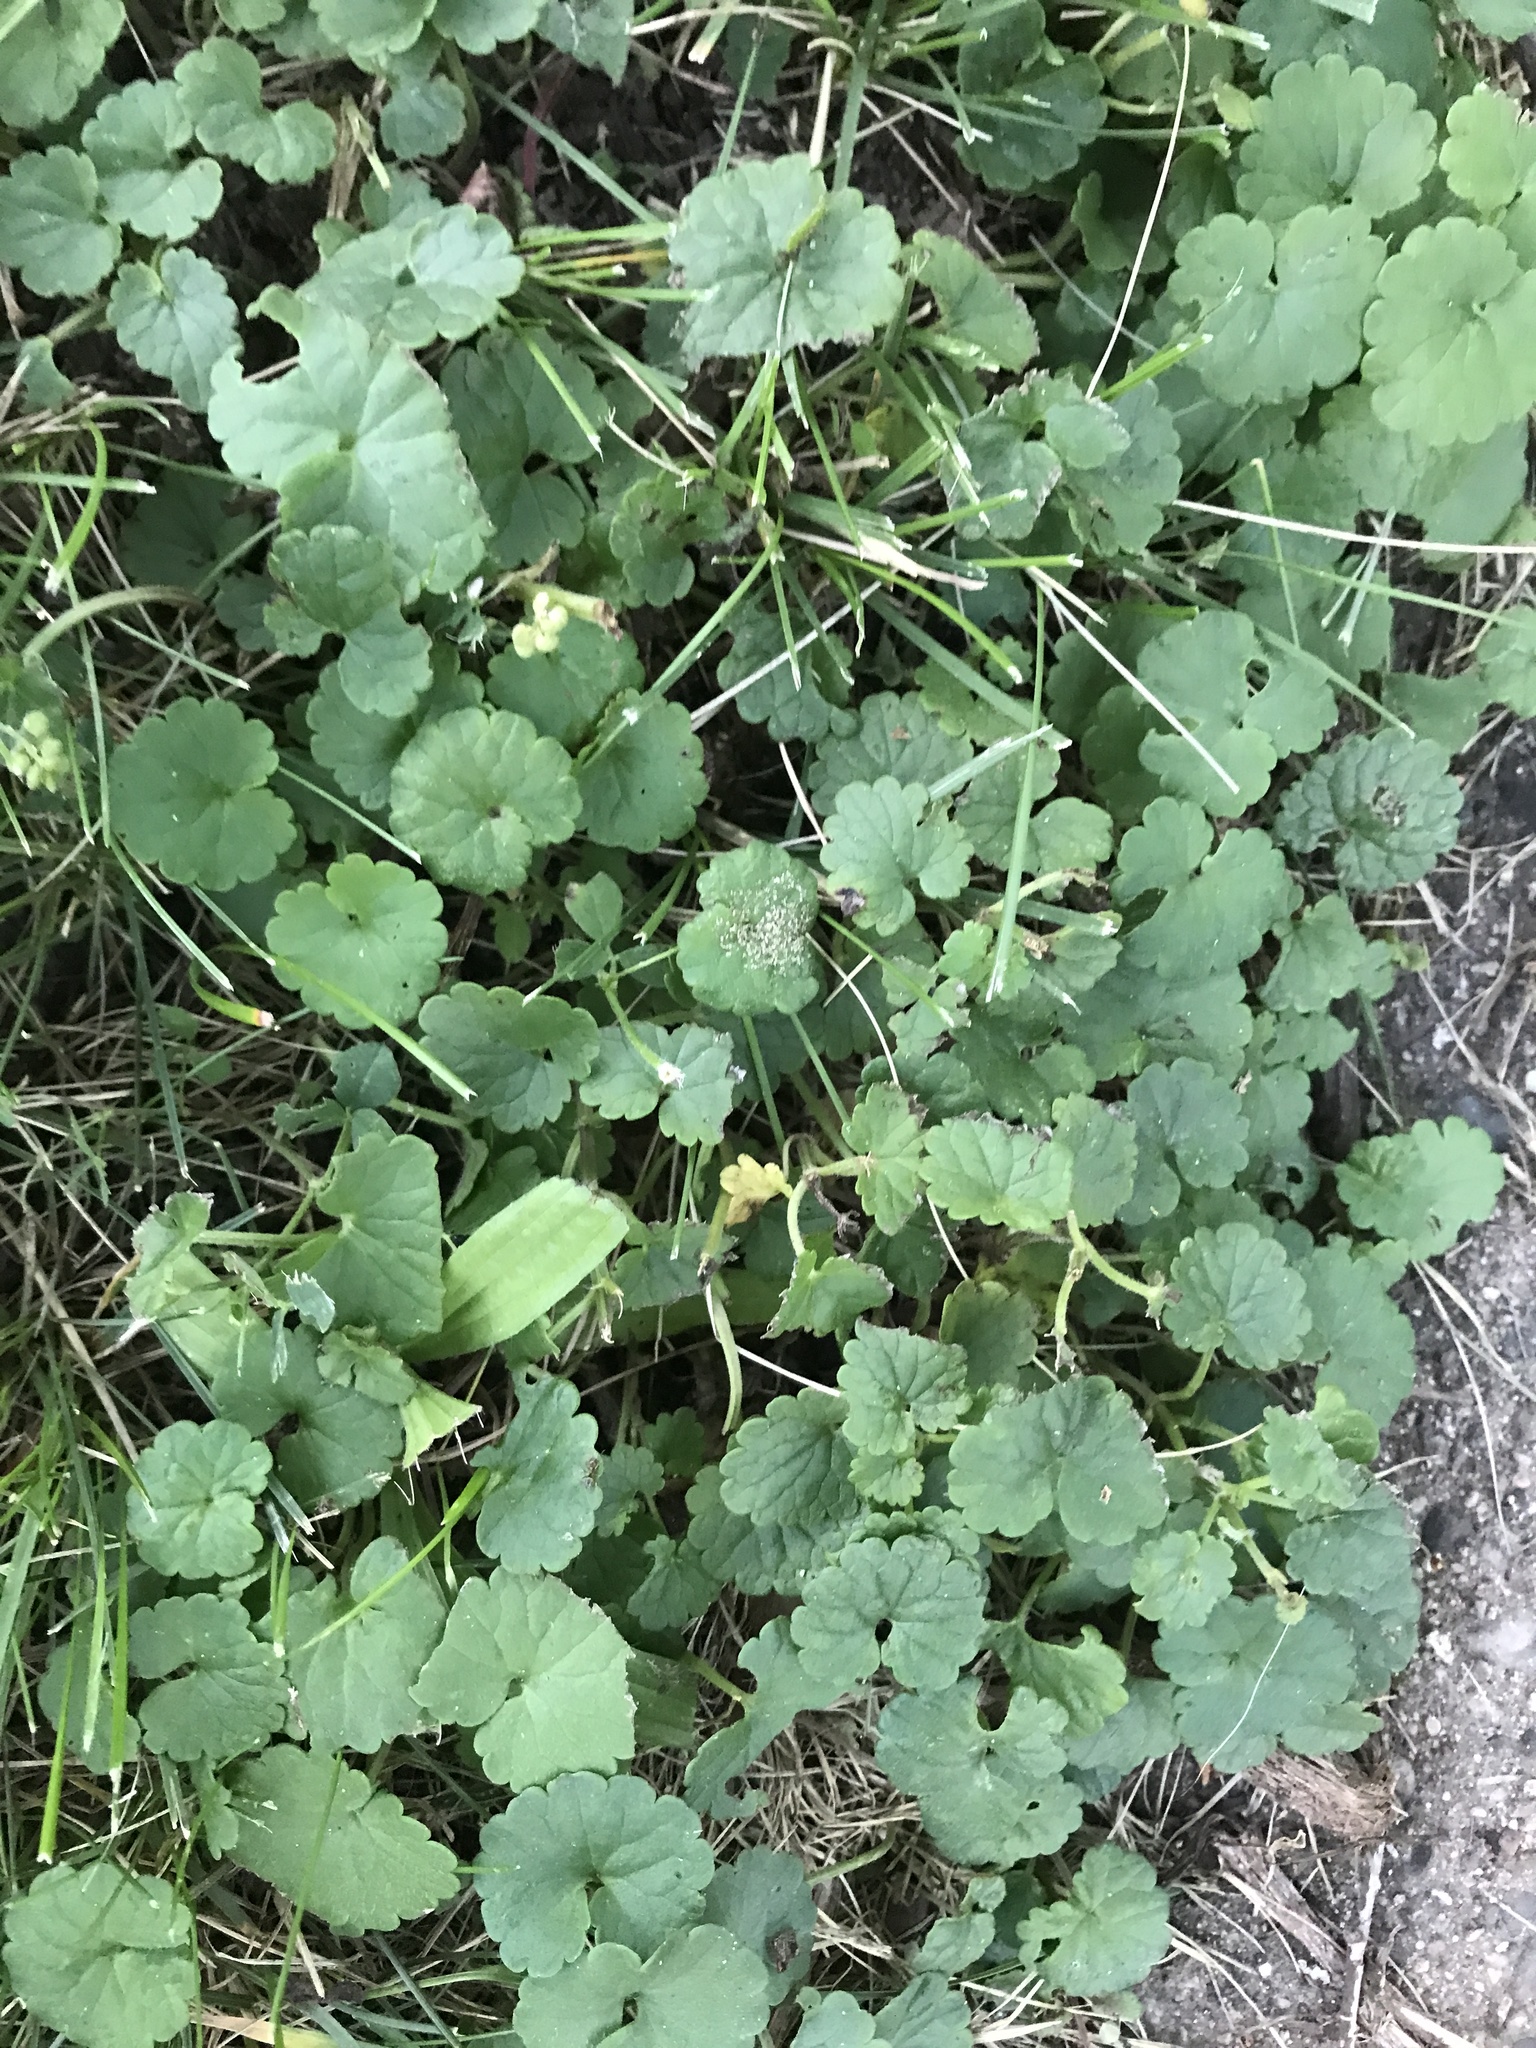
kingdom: Plantae
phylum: Tracheophyta
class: Magnoliopsida
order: Lamiales
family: Lamiaceae
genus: Glechoma
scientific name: Glechoma hederacea
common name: Ground ivy
